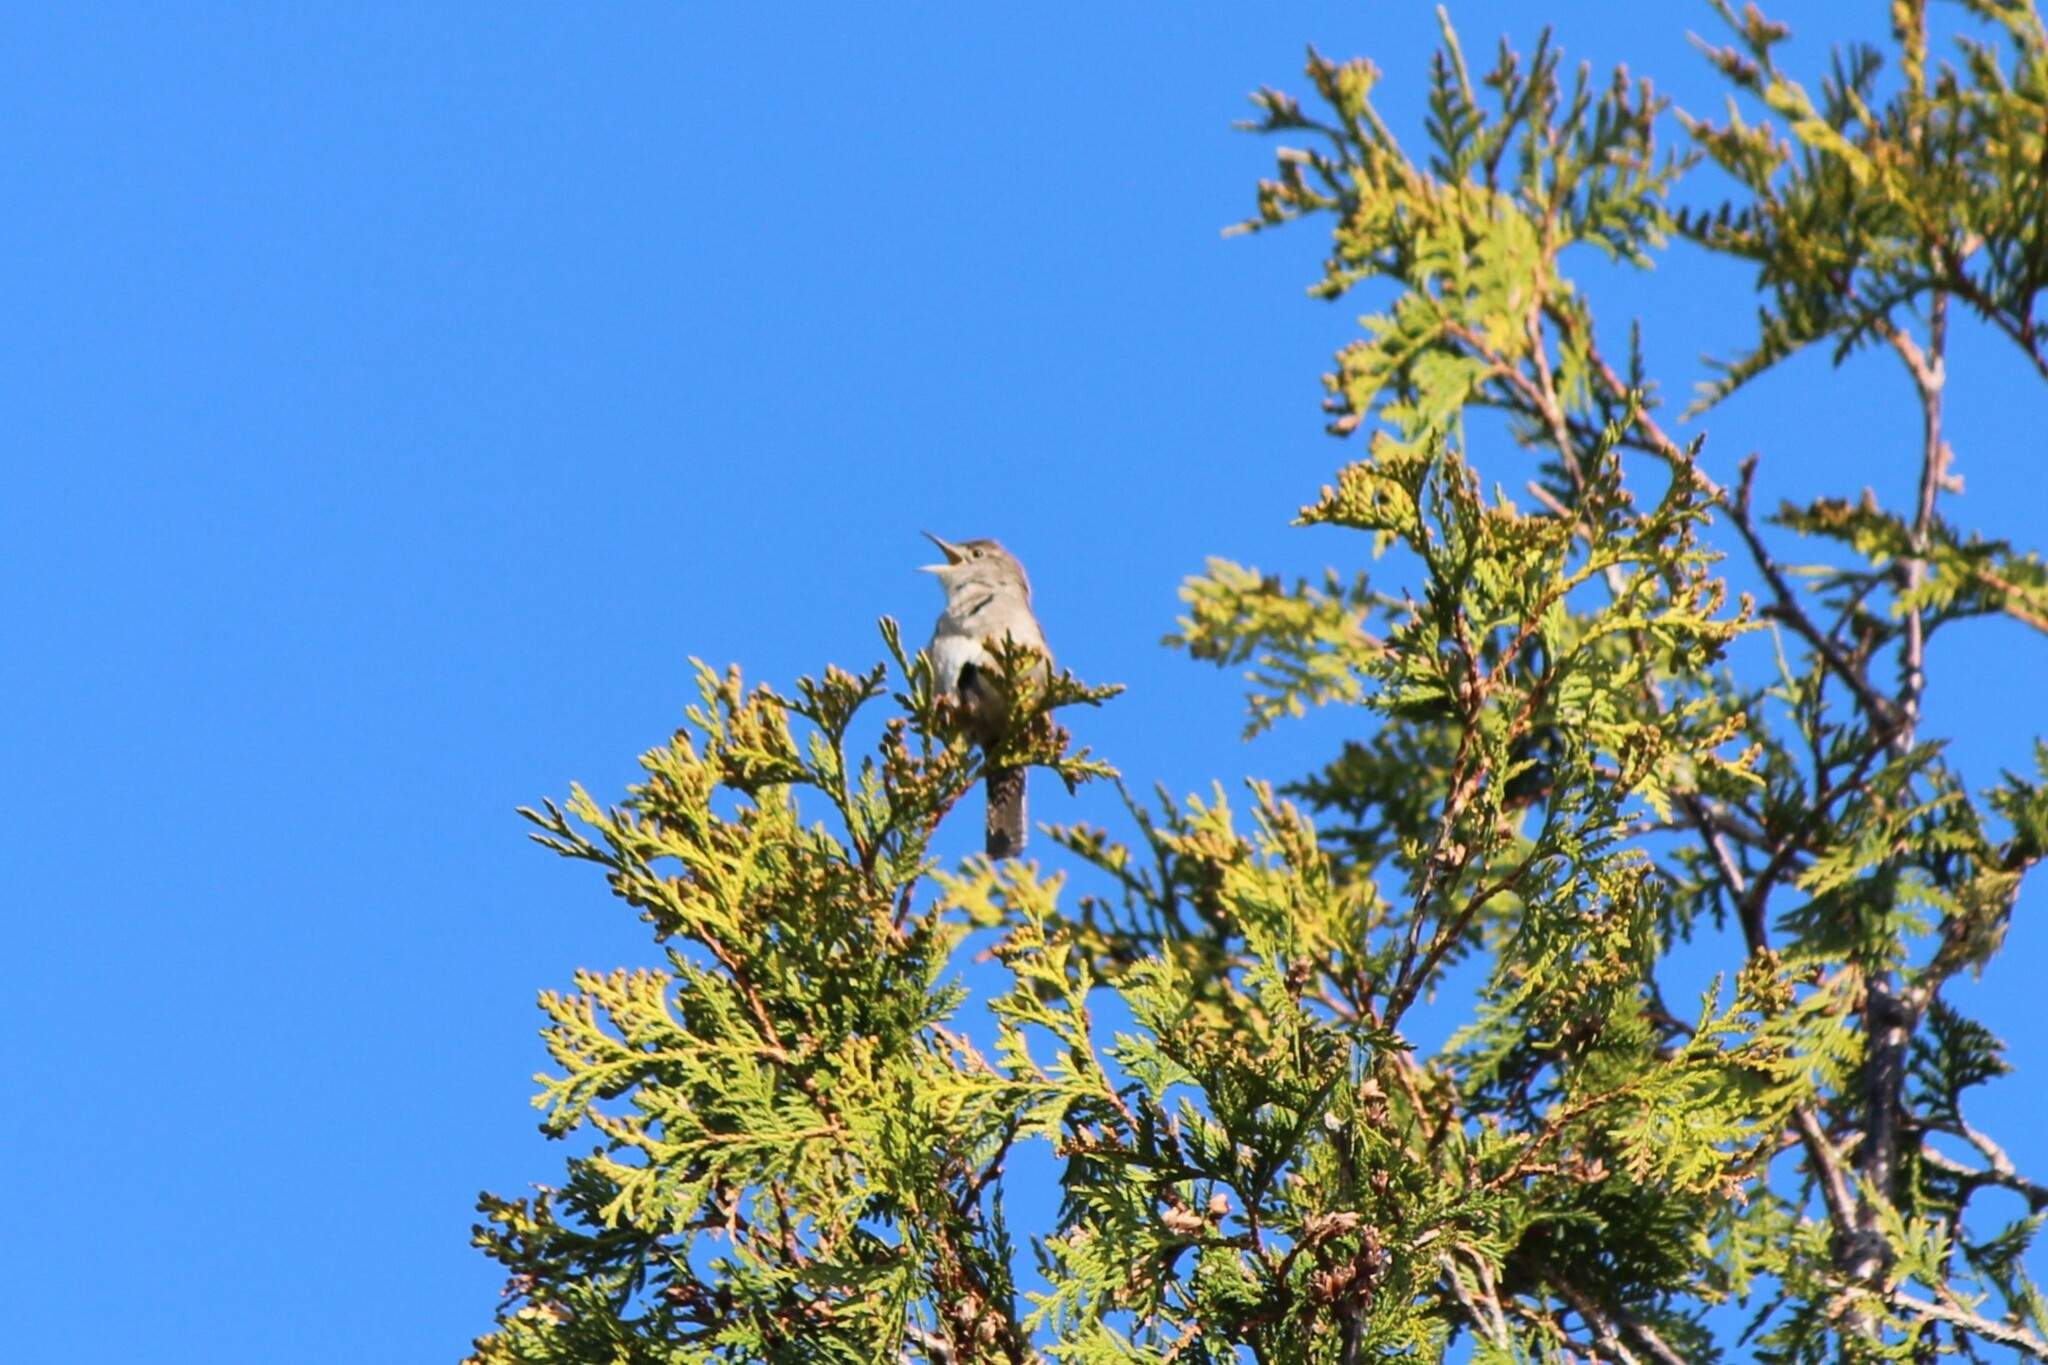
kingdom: Animalia
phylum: Chordata
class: Aves
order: Passeriformes
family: Troglodytidae
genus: Troglodytes
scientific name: Troglodytes aedon
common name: House wren
